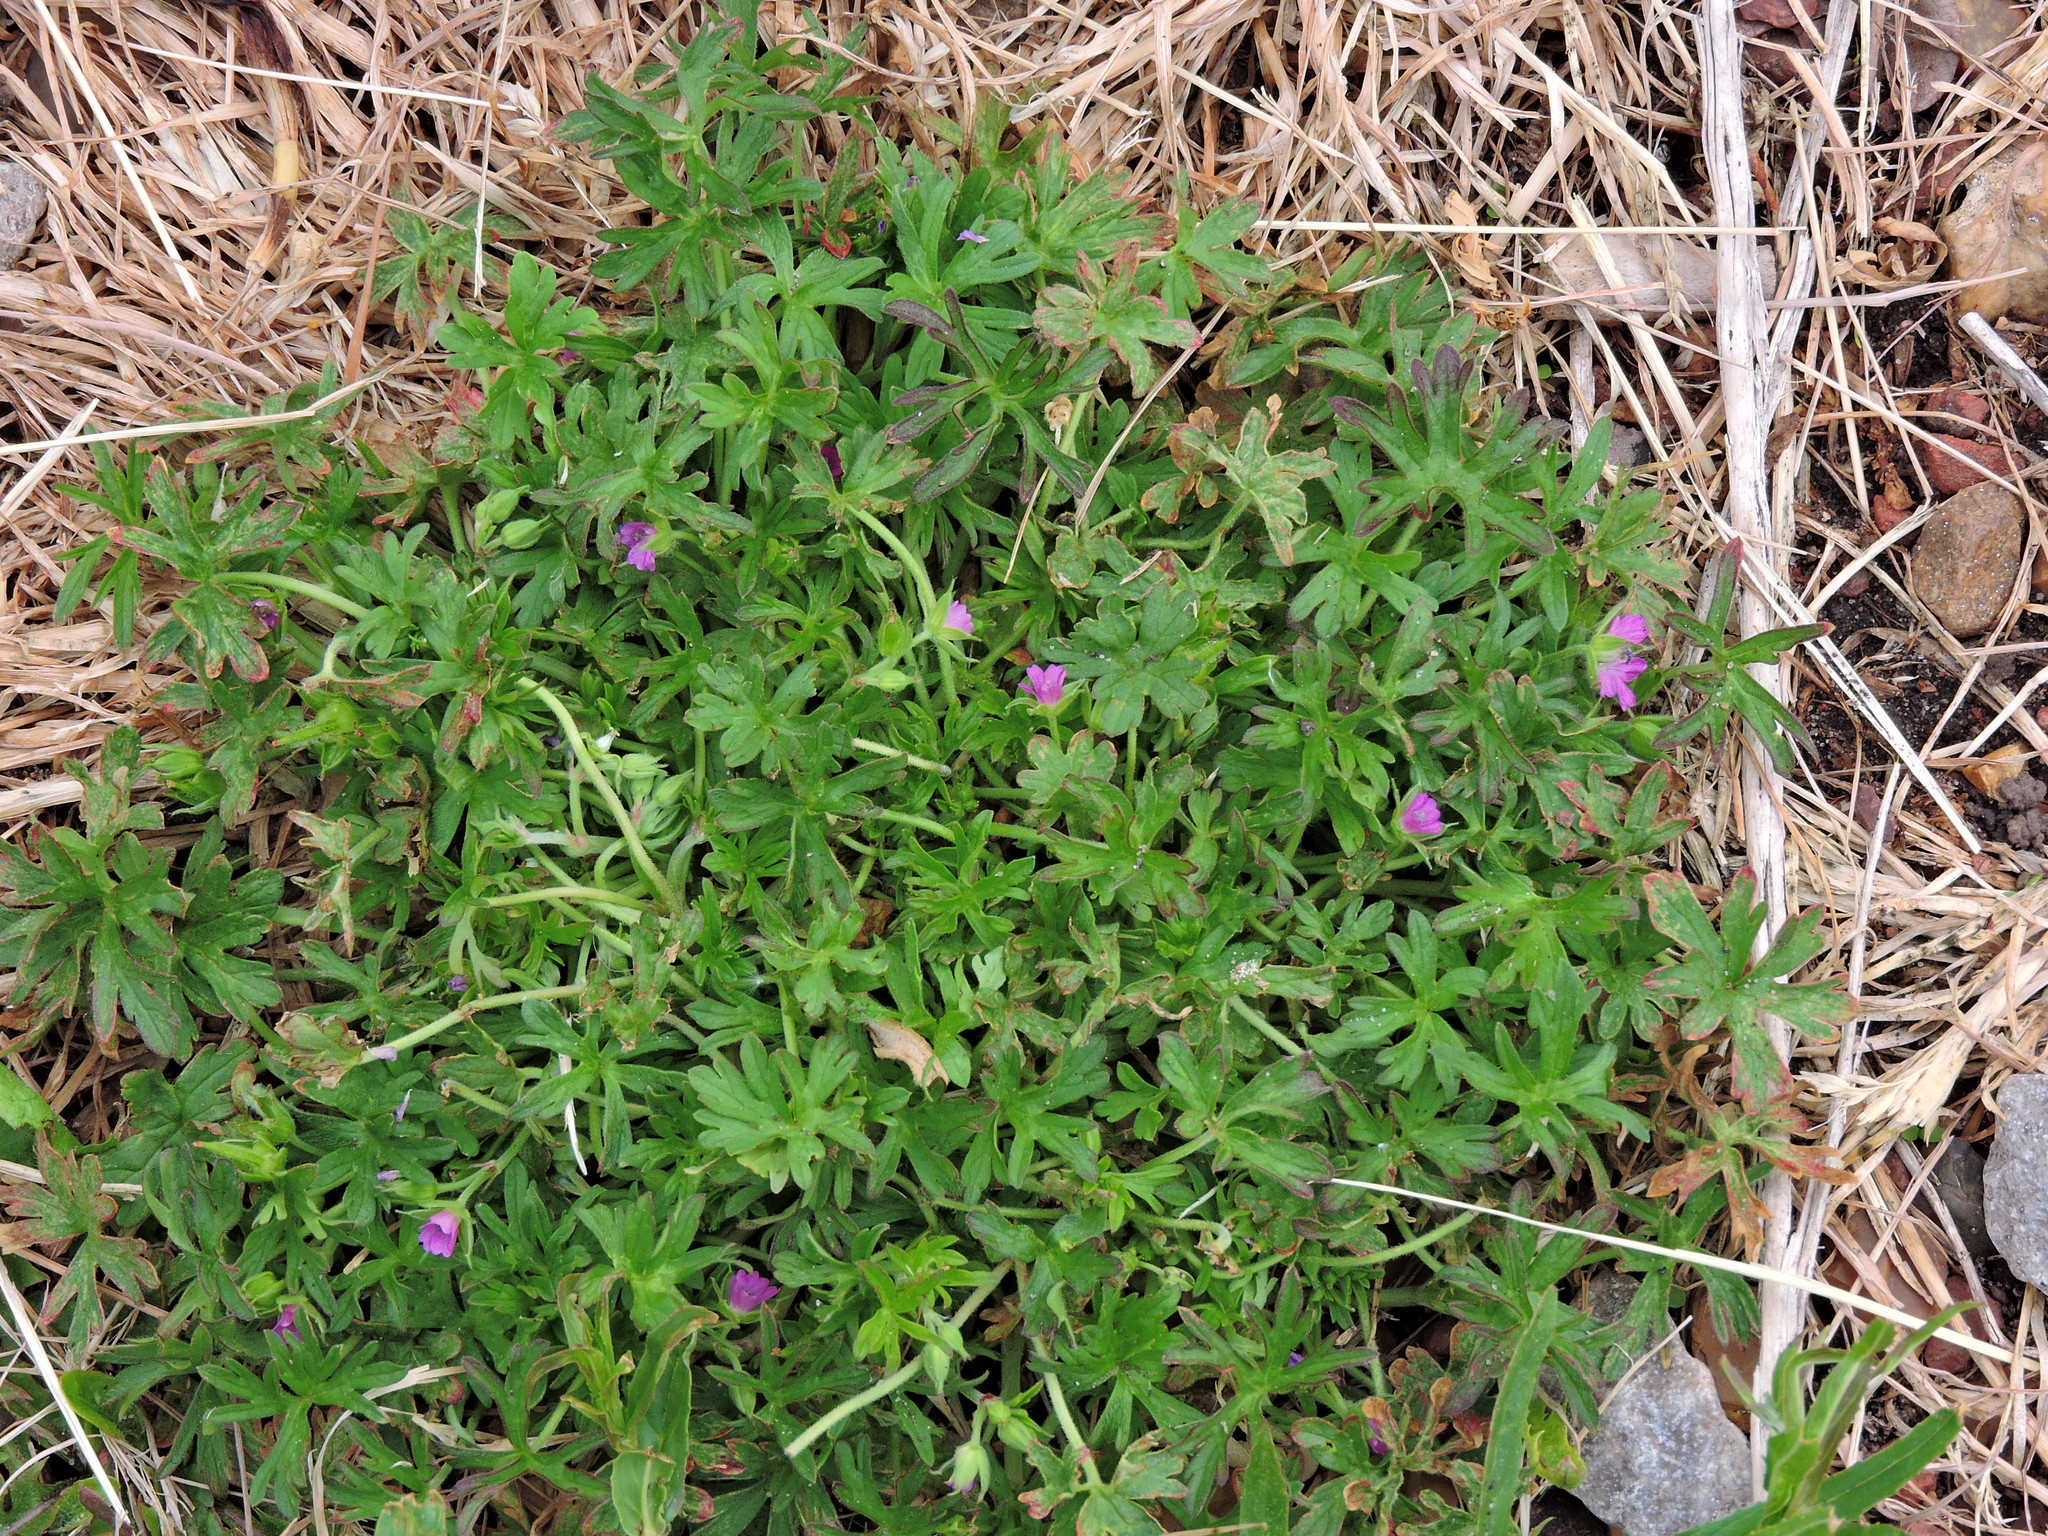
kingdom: Plantae
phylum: Tracheophyta
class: Magnoliopsida
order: Geraniales
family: Geraniaceae
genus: Geranium
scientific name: Geranium dissectum
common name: Cut-leaved crane's-bill
